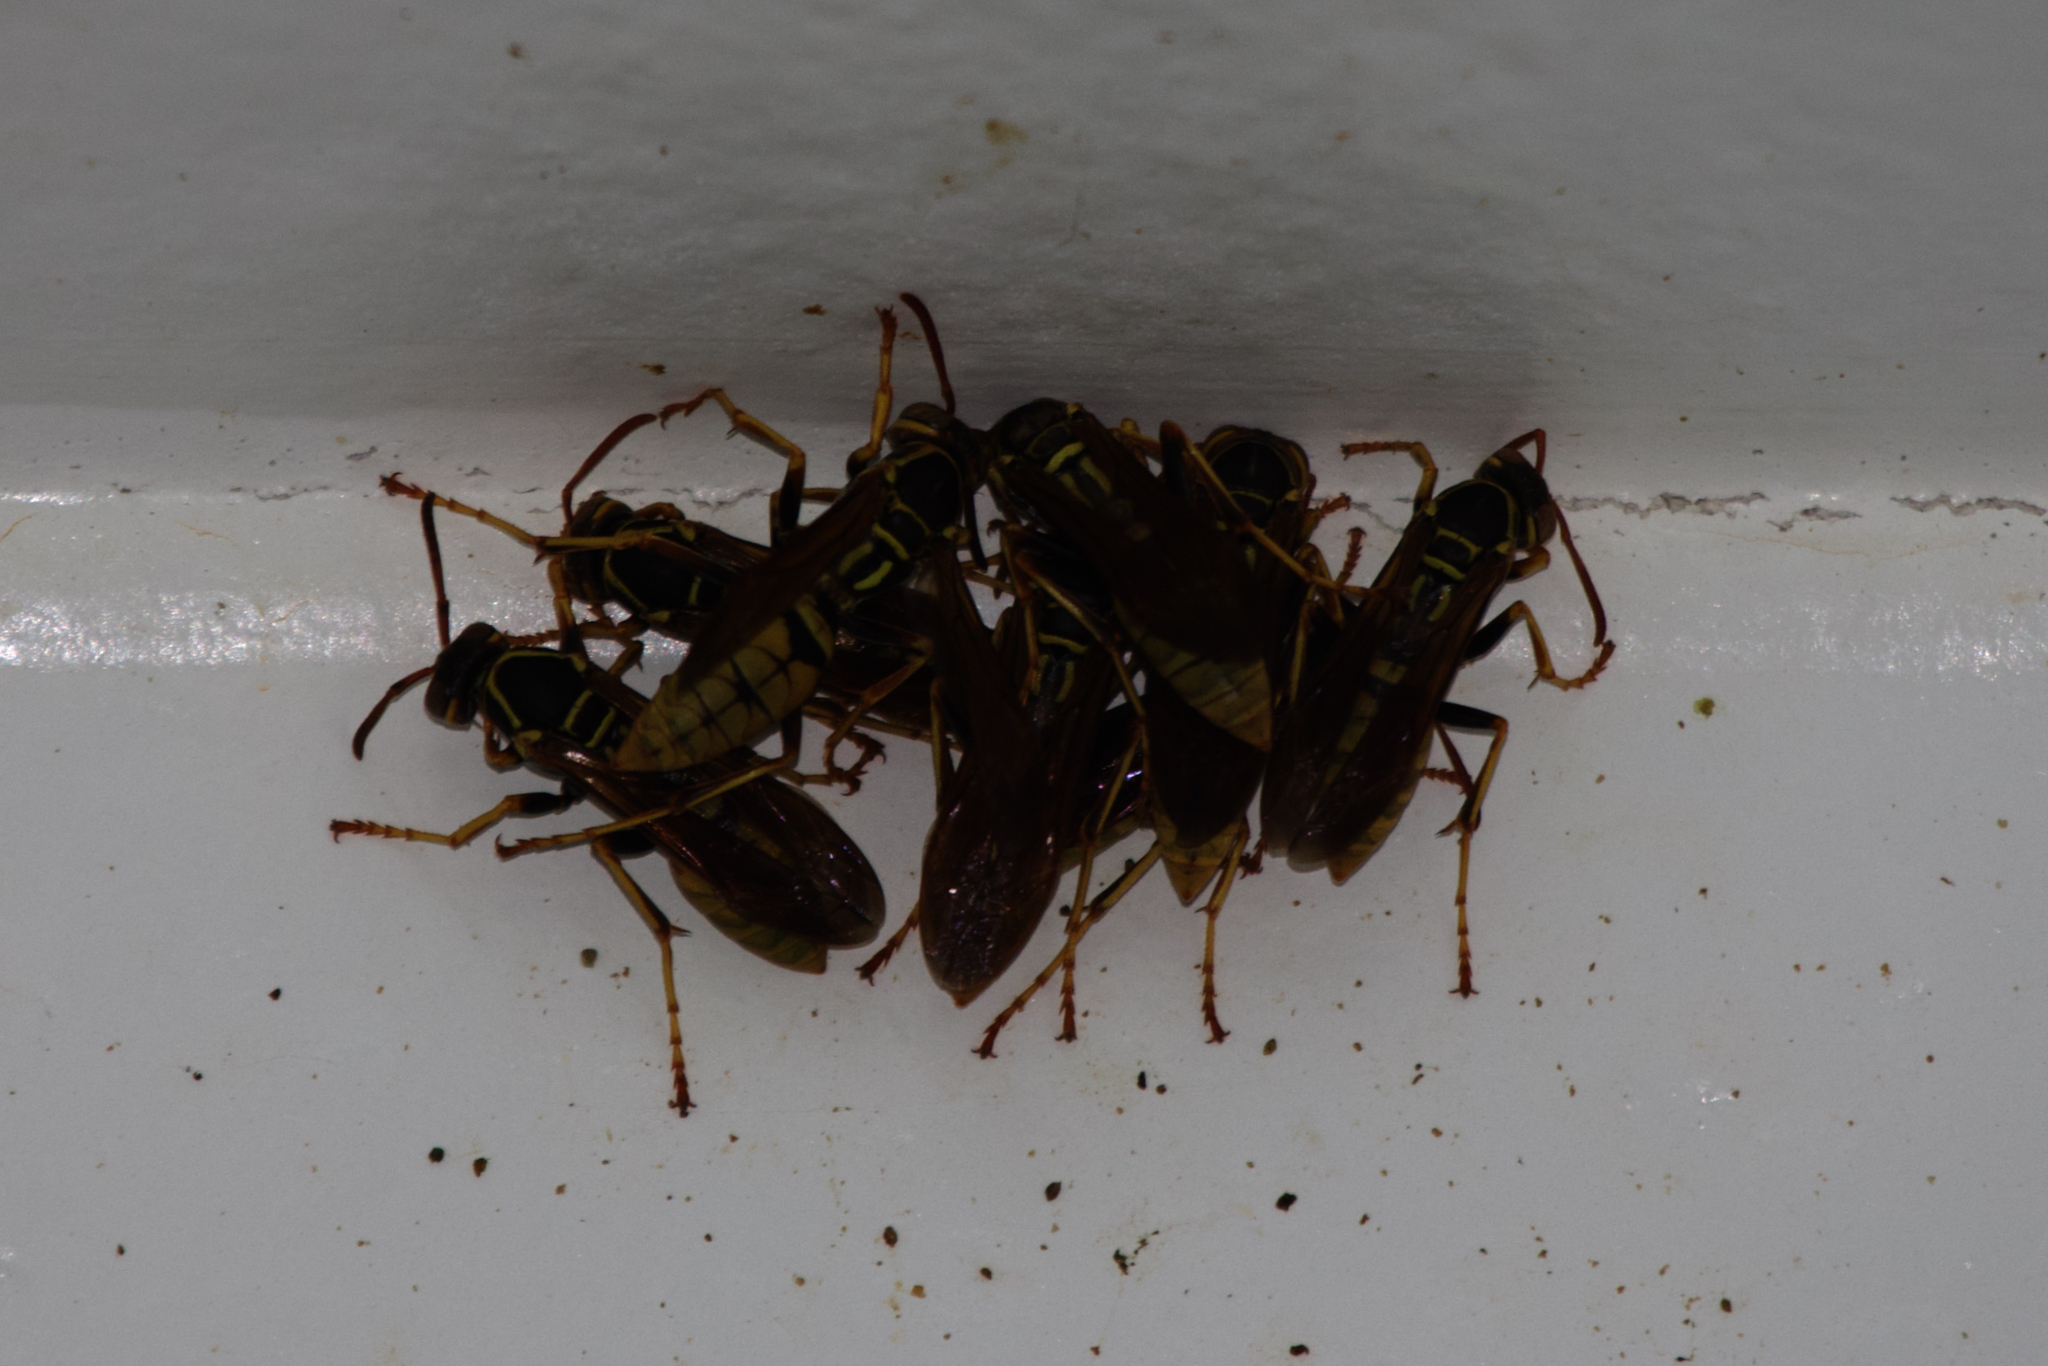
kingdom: Animalia
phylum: Arthropoda
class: Insecta
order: Hymenoptera
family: Eumenidae
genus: Polistes
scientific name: Polistes aurifer
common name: Paper wasp
